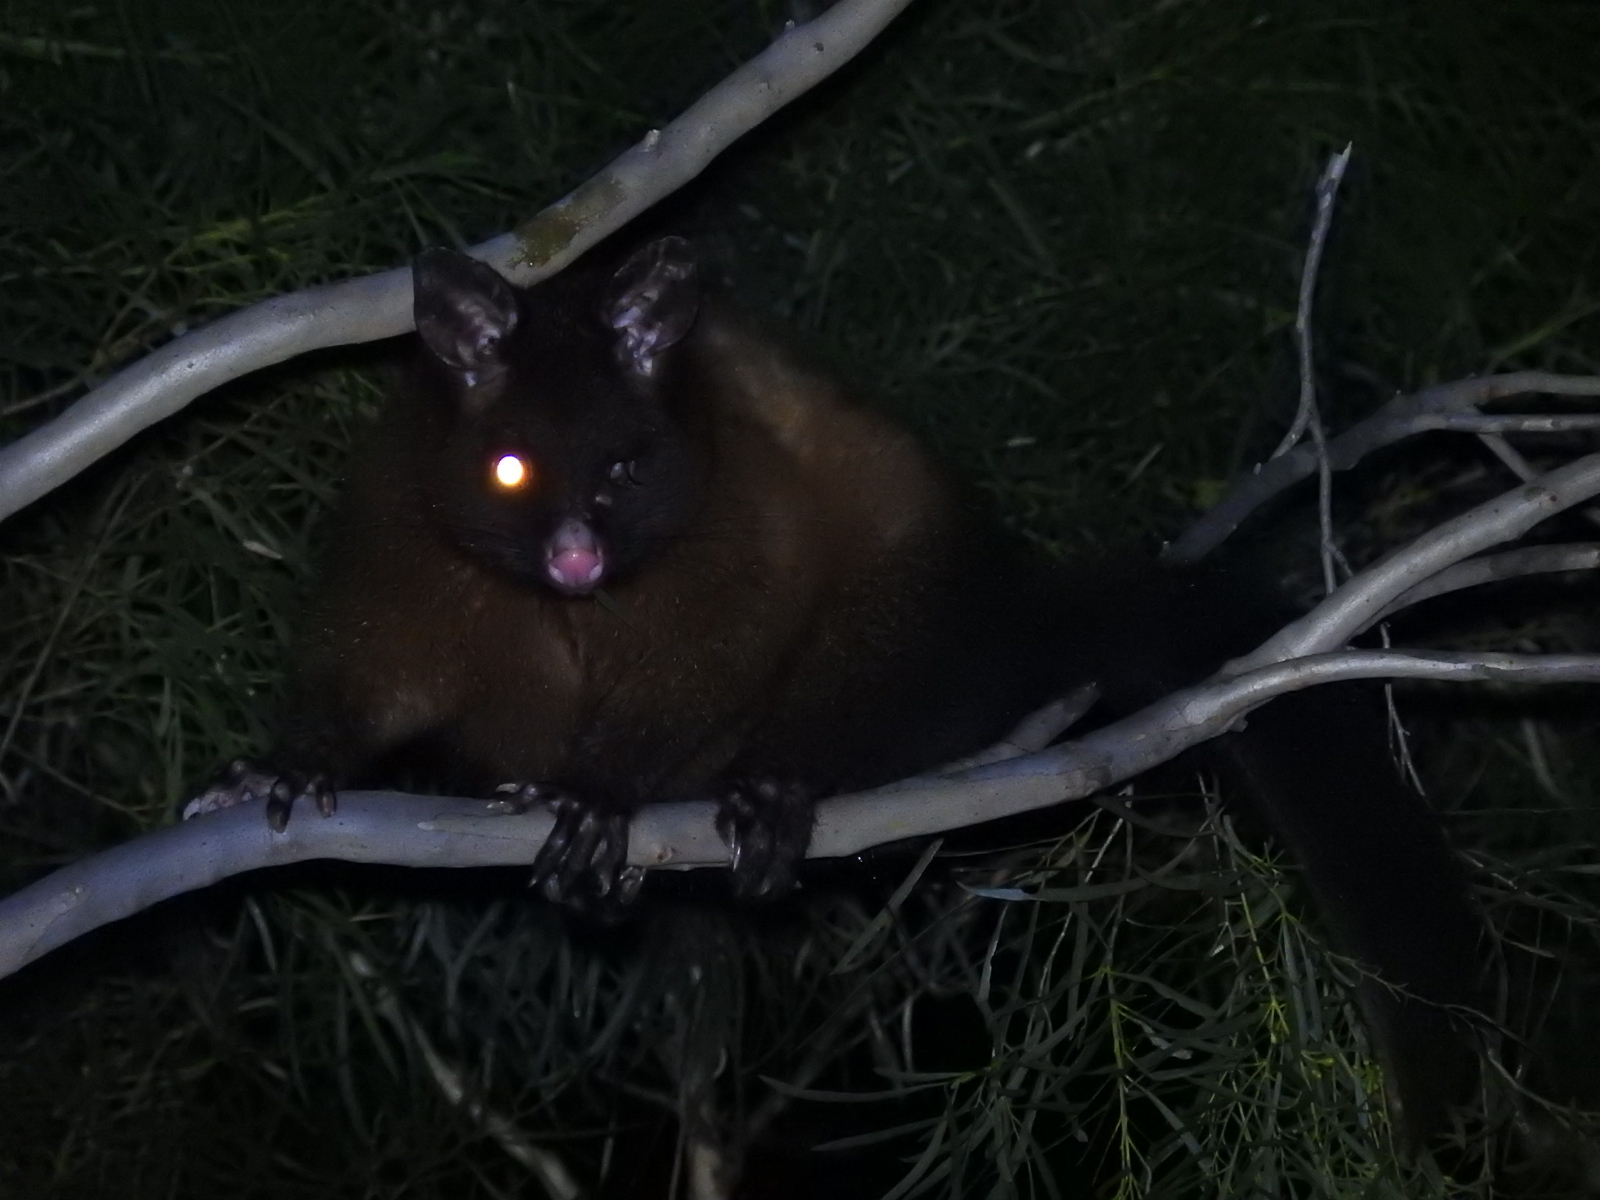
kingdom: Animalia
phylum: Chordata
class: Mammalia
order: Diprotodontia
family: Phalangeridae
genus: Trichosurus
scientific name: Trichosurus vulpecula
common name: Common brushtail
